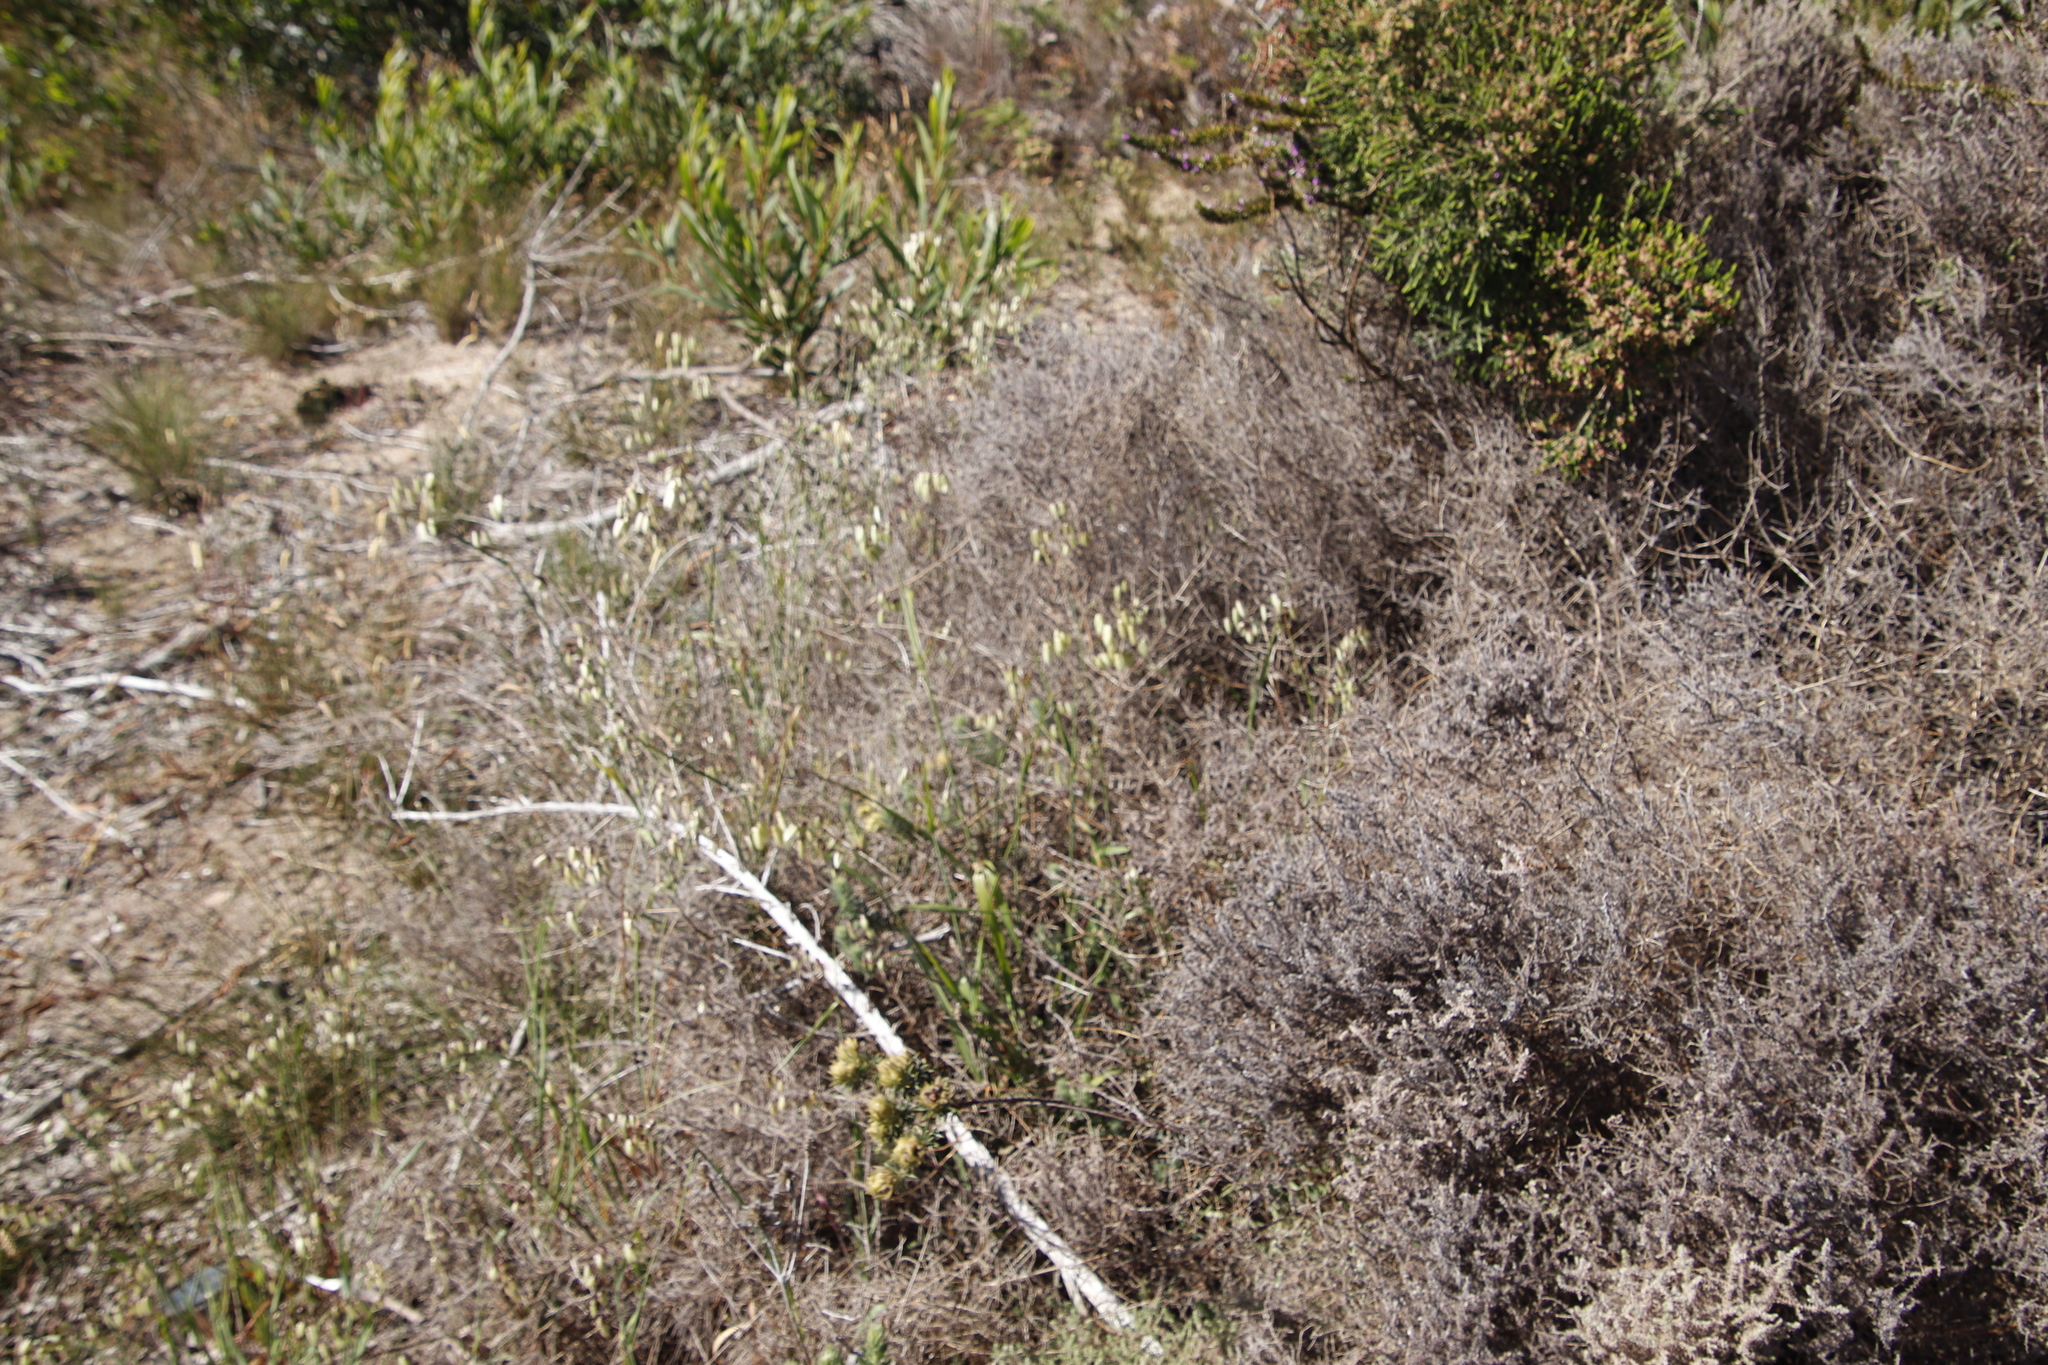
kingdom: Plantae
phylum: Tracheophyta
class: Liliopsida
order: Poales
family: Poaceae
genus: Briza
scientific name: Briza maxima
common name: Big quakinggrass
